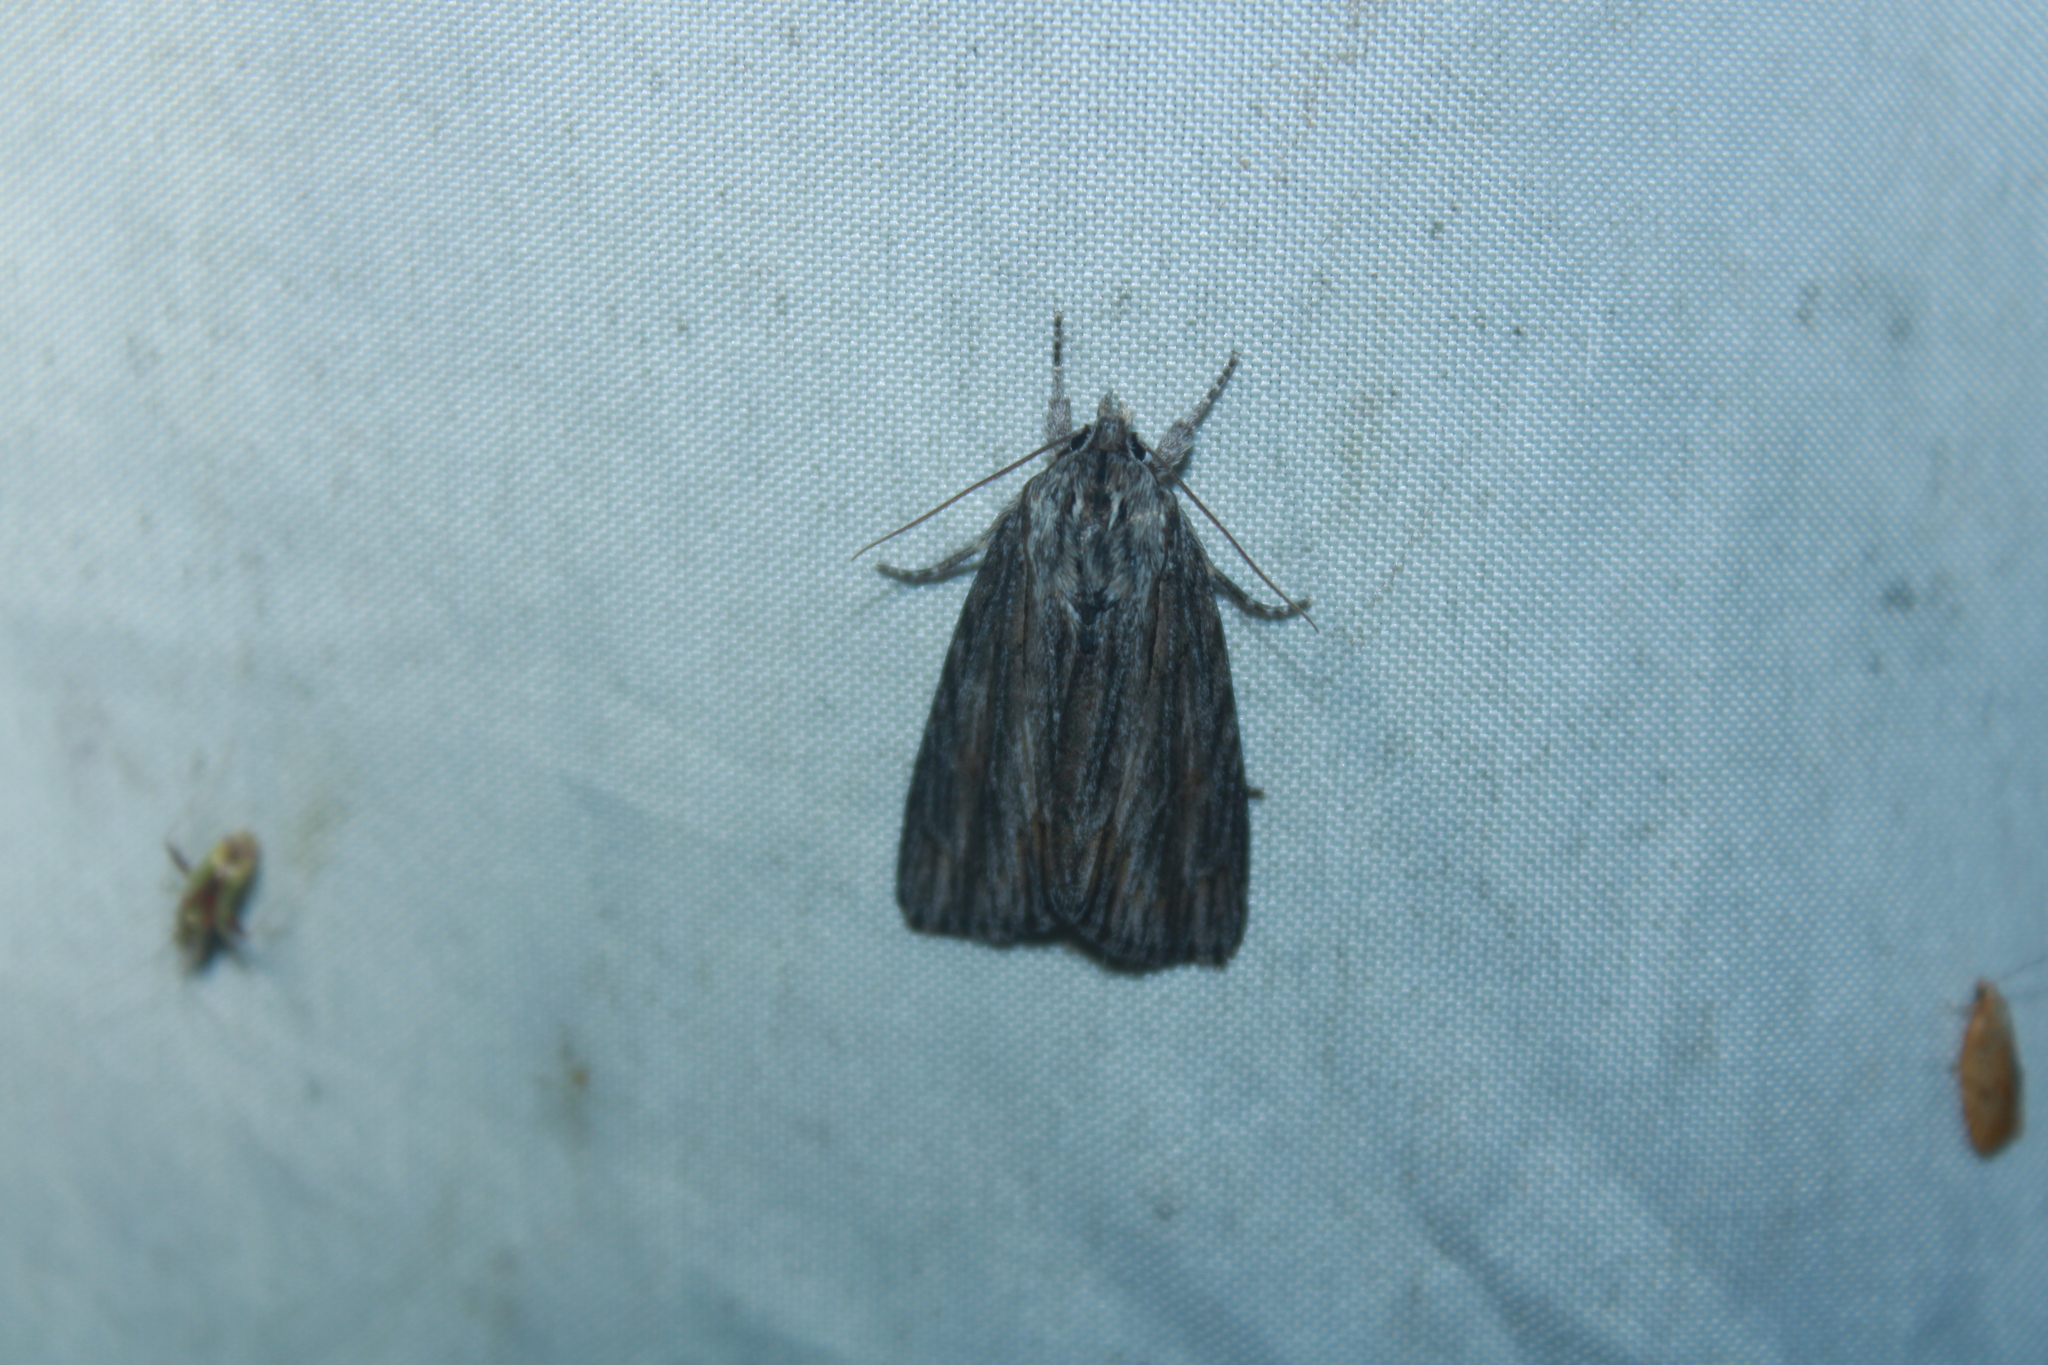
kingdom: Animalia
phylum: Arthropoda
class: Insecta
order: Lepidoptera
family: Noctuidae
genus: Acronicta
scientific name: Acronicta lithospila
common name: Streaked dagger
